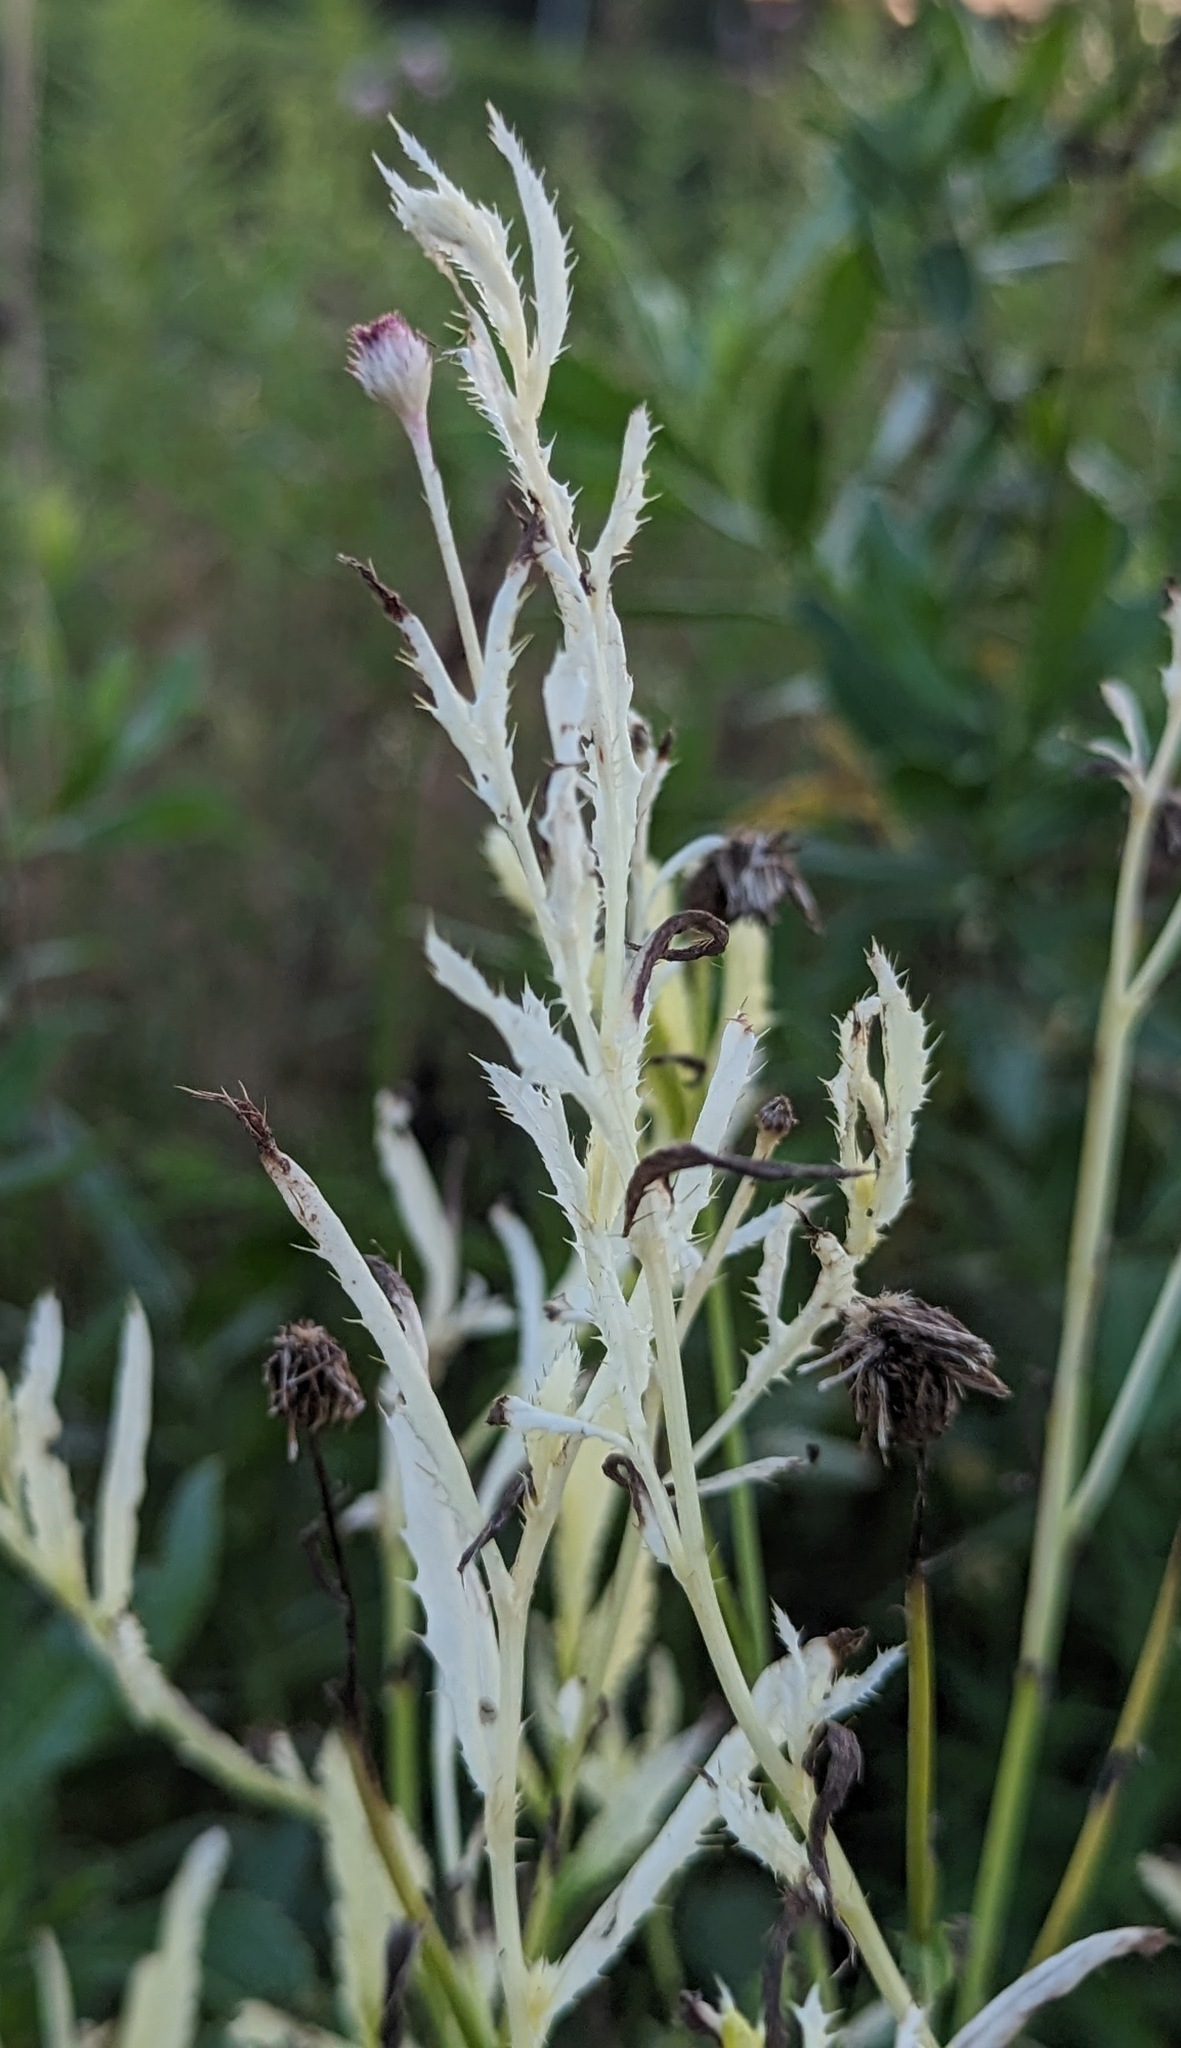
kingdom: Bacteria
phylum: Proteobacteria
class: Gammaproteobacteria
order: Pseudomonadales
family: Pseudomonadaceae
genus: Pseudomonas
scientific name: Pseudomonas syringae
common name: Bacterial speck
